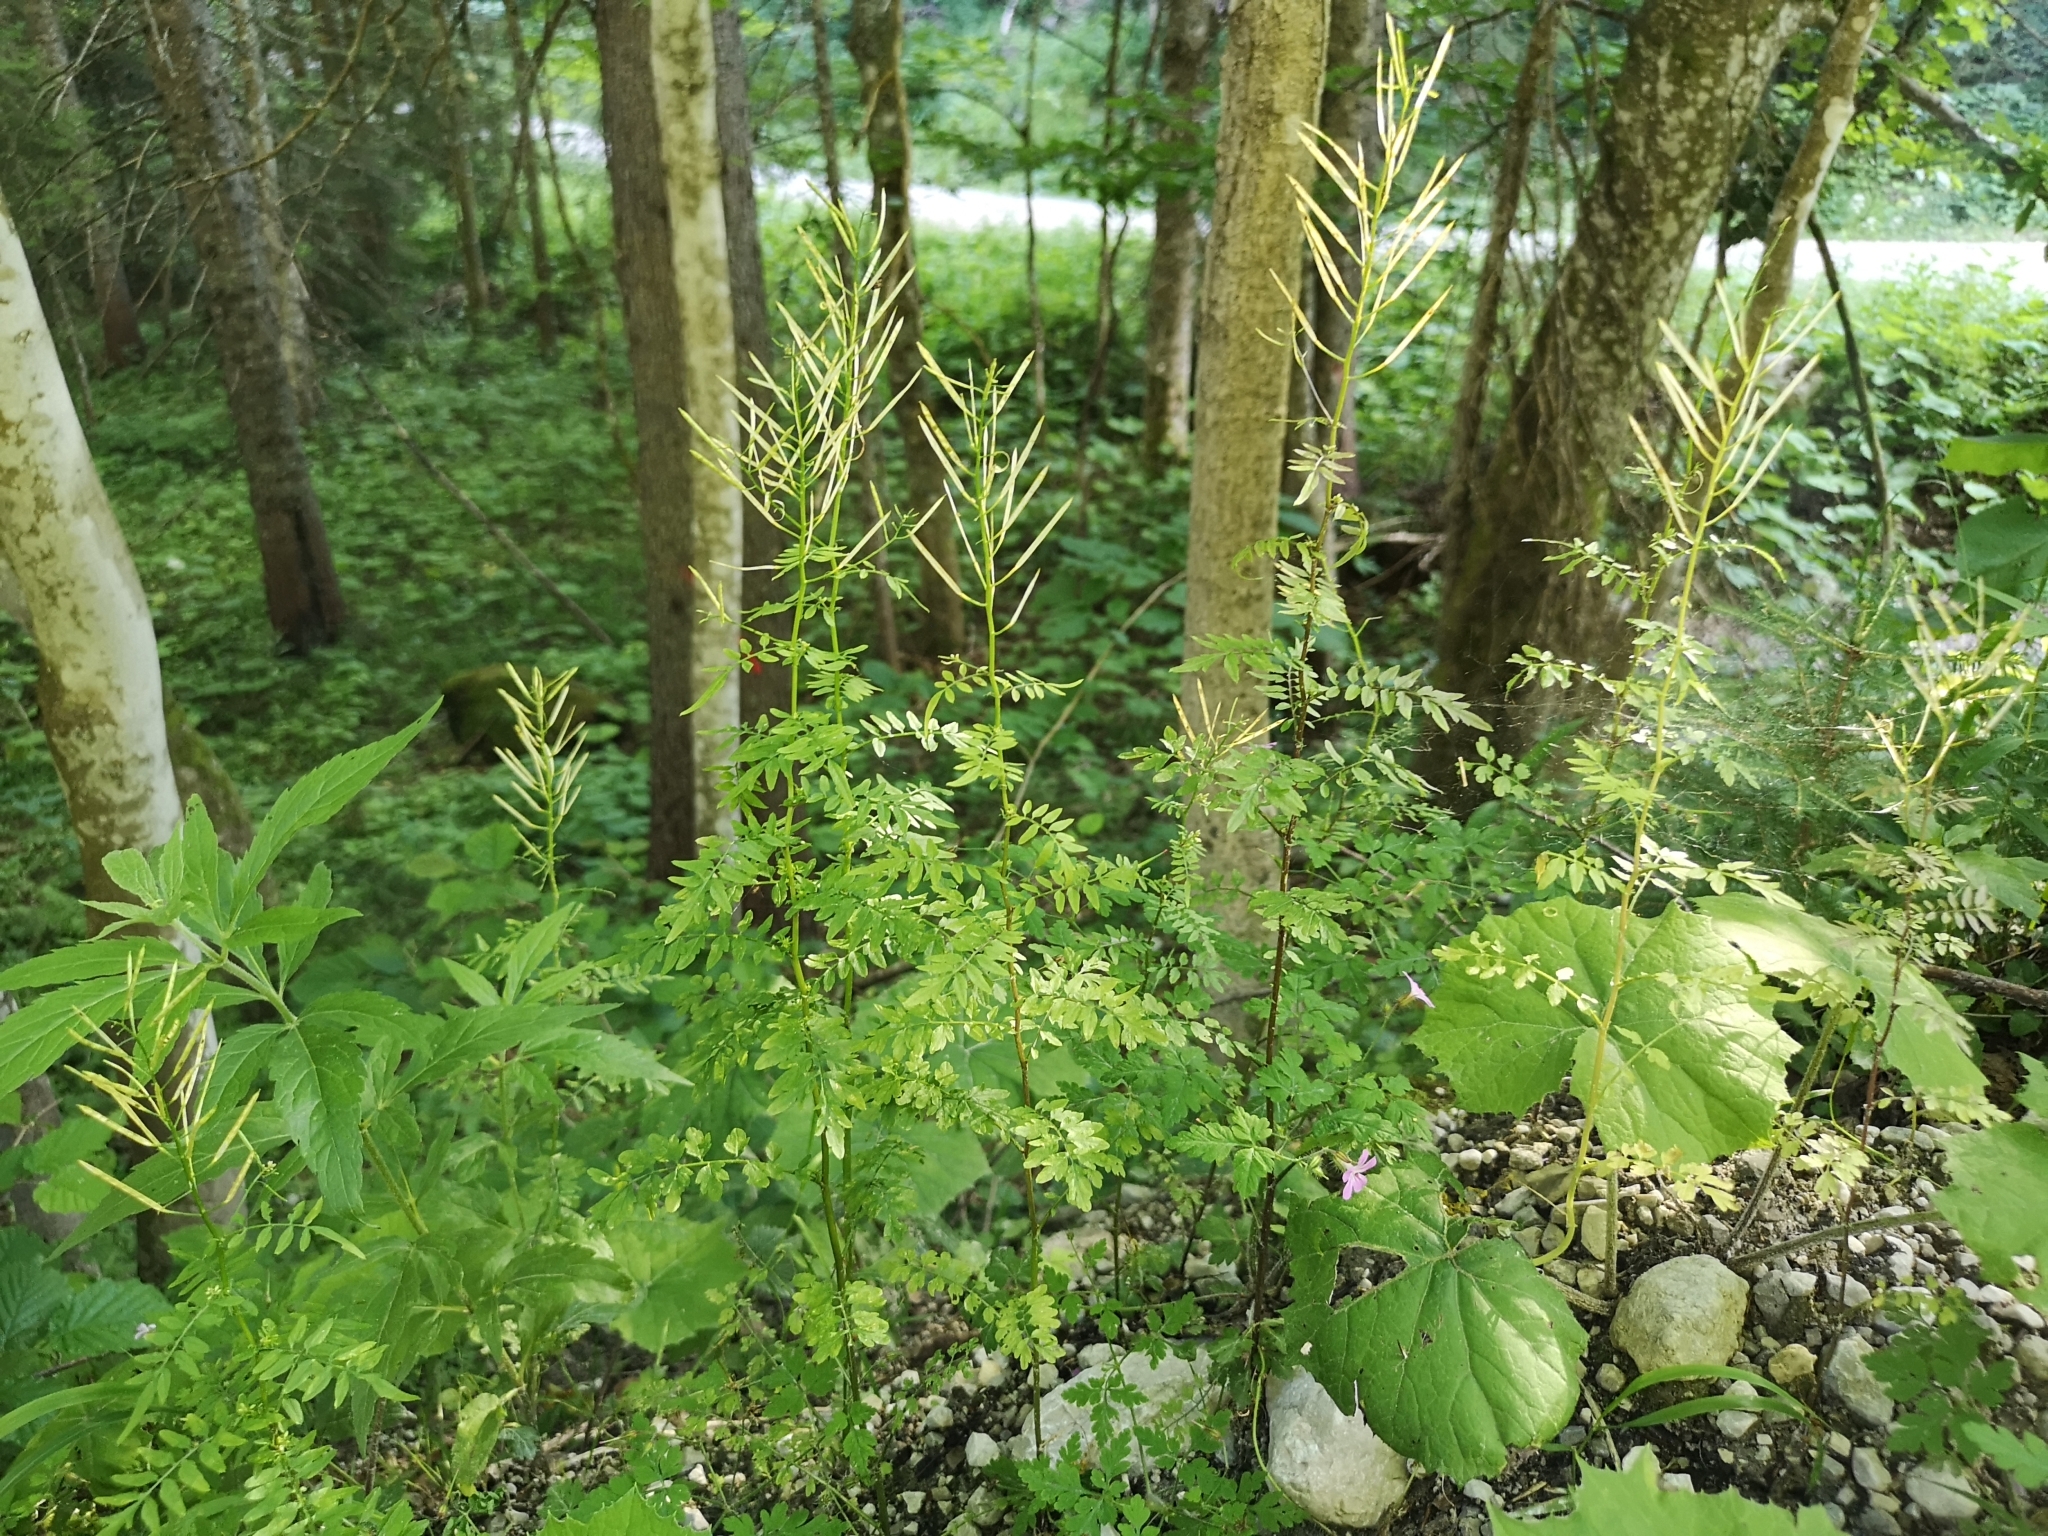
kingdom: Plantae
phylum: Tracheophyta
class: Magnoliopsida
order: Brassicales
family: Brassicaceae
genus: Cardamine
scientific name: Cardamine impatiens
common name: Narrow-leaved bitter-cress
